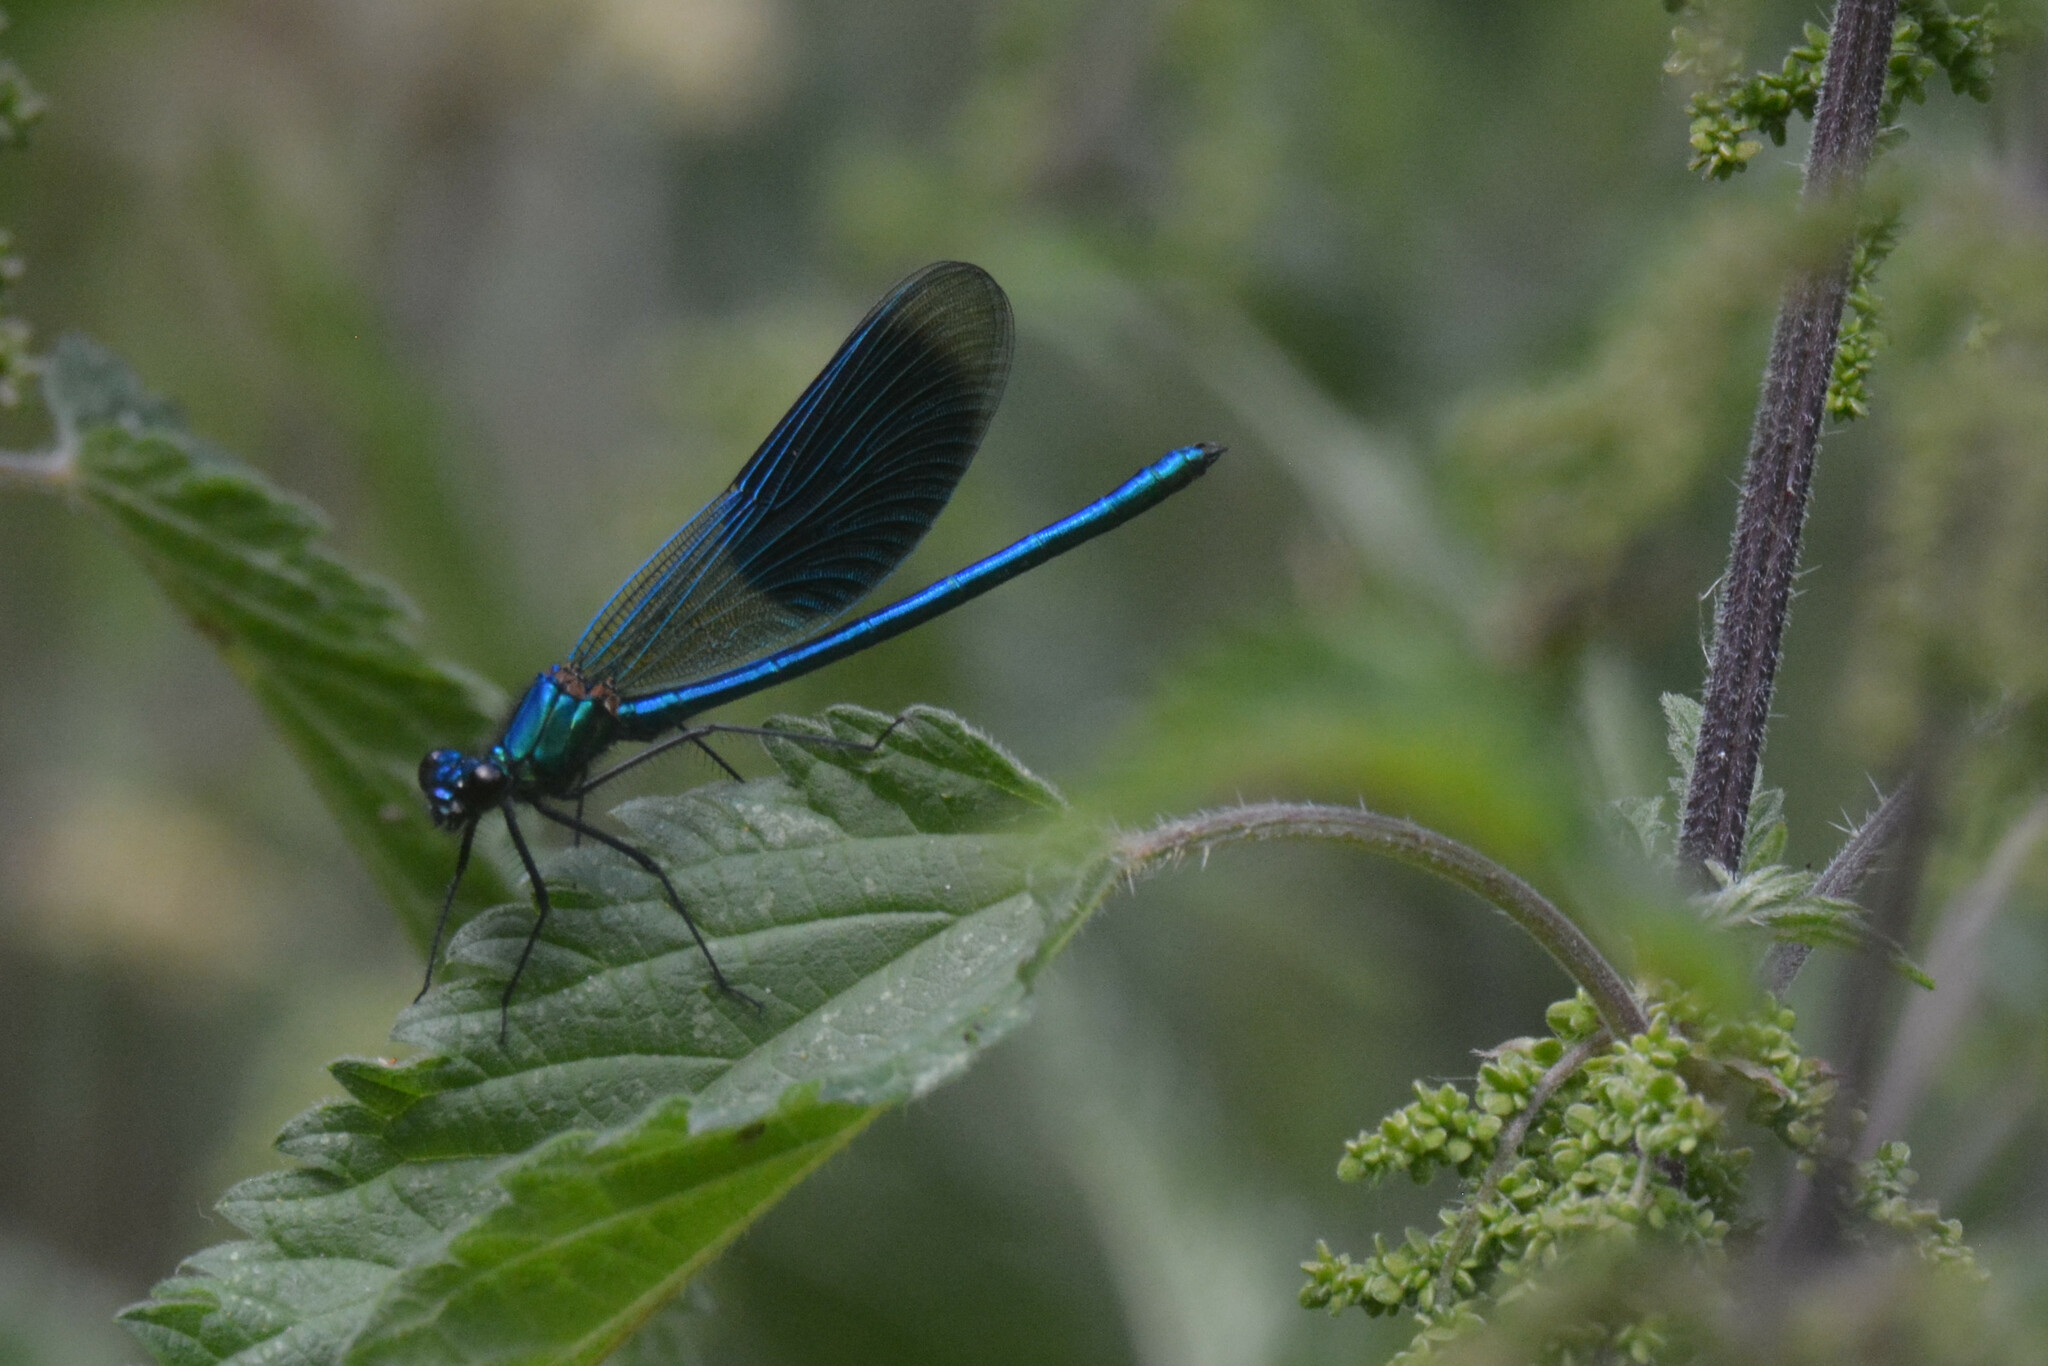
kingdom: Animalia
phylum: Arthropoda
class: Insecta
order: Odonata
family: Calopterygidae
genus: Calopteryx
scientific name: Calopteryx splendens
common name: Banded demoiselle
